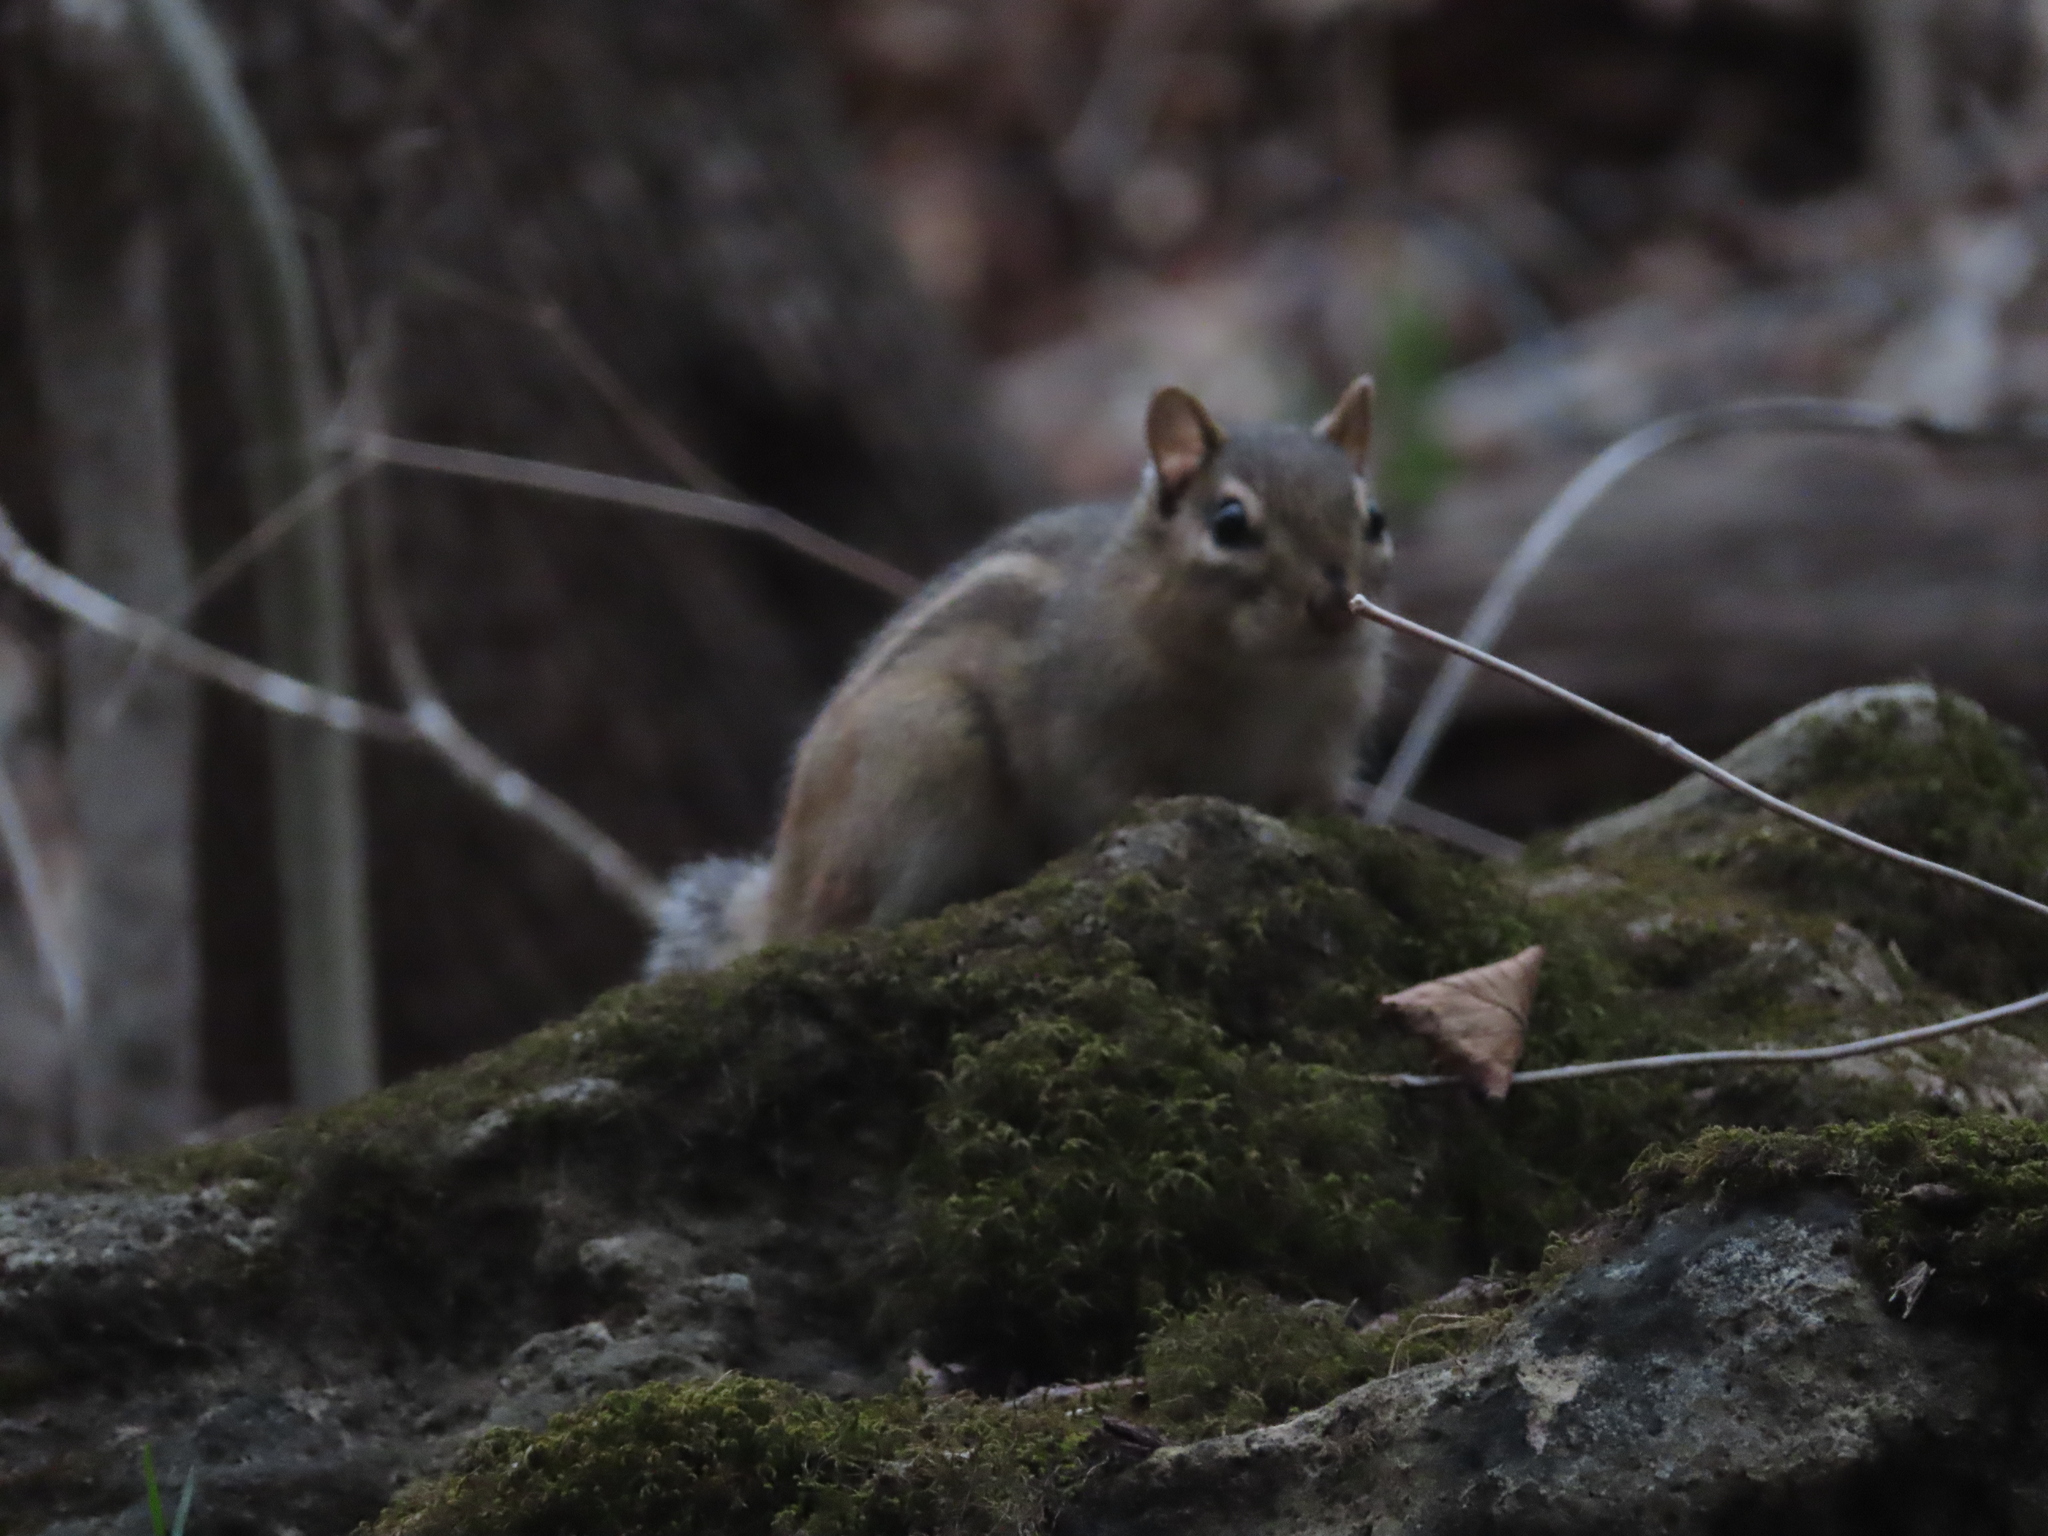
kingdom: Animalia
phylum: Chordata
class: Mammalia
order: Rodentia
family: Sciuridae
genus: Tamias
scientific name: Tamias striatus
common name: Eastern chipmunk
